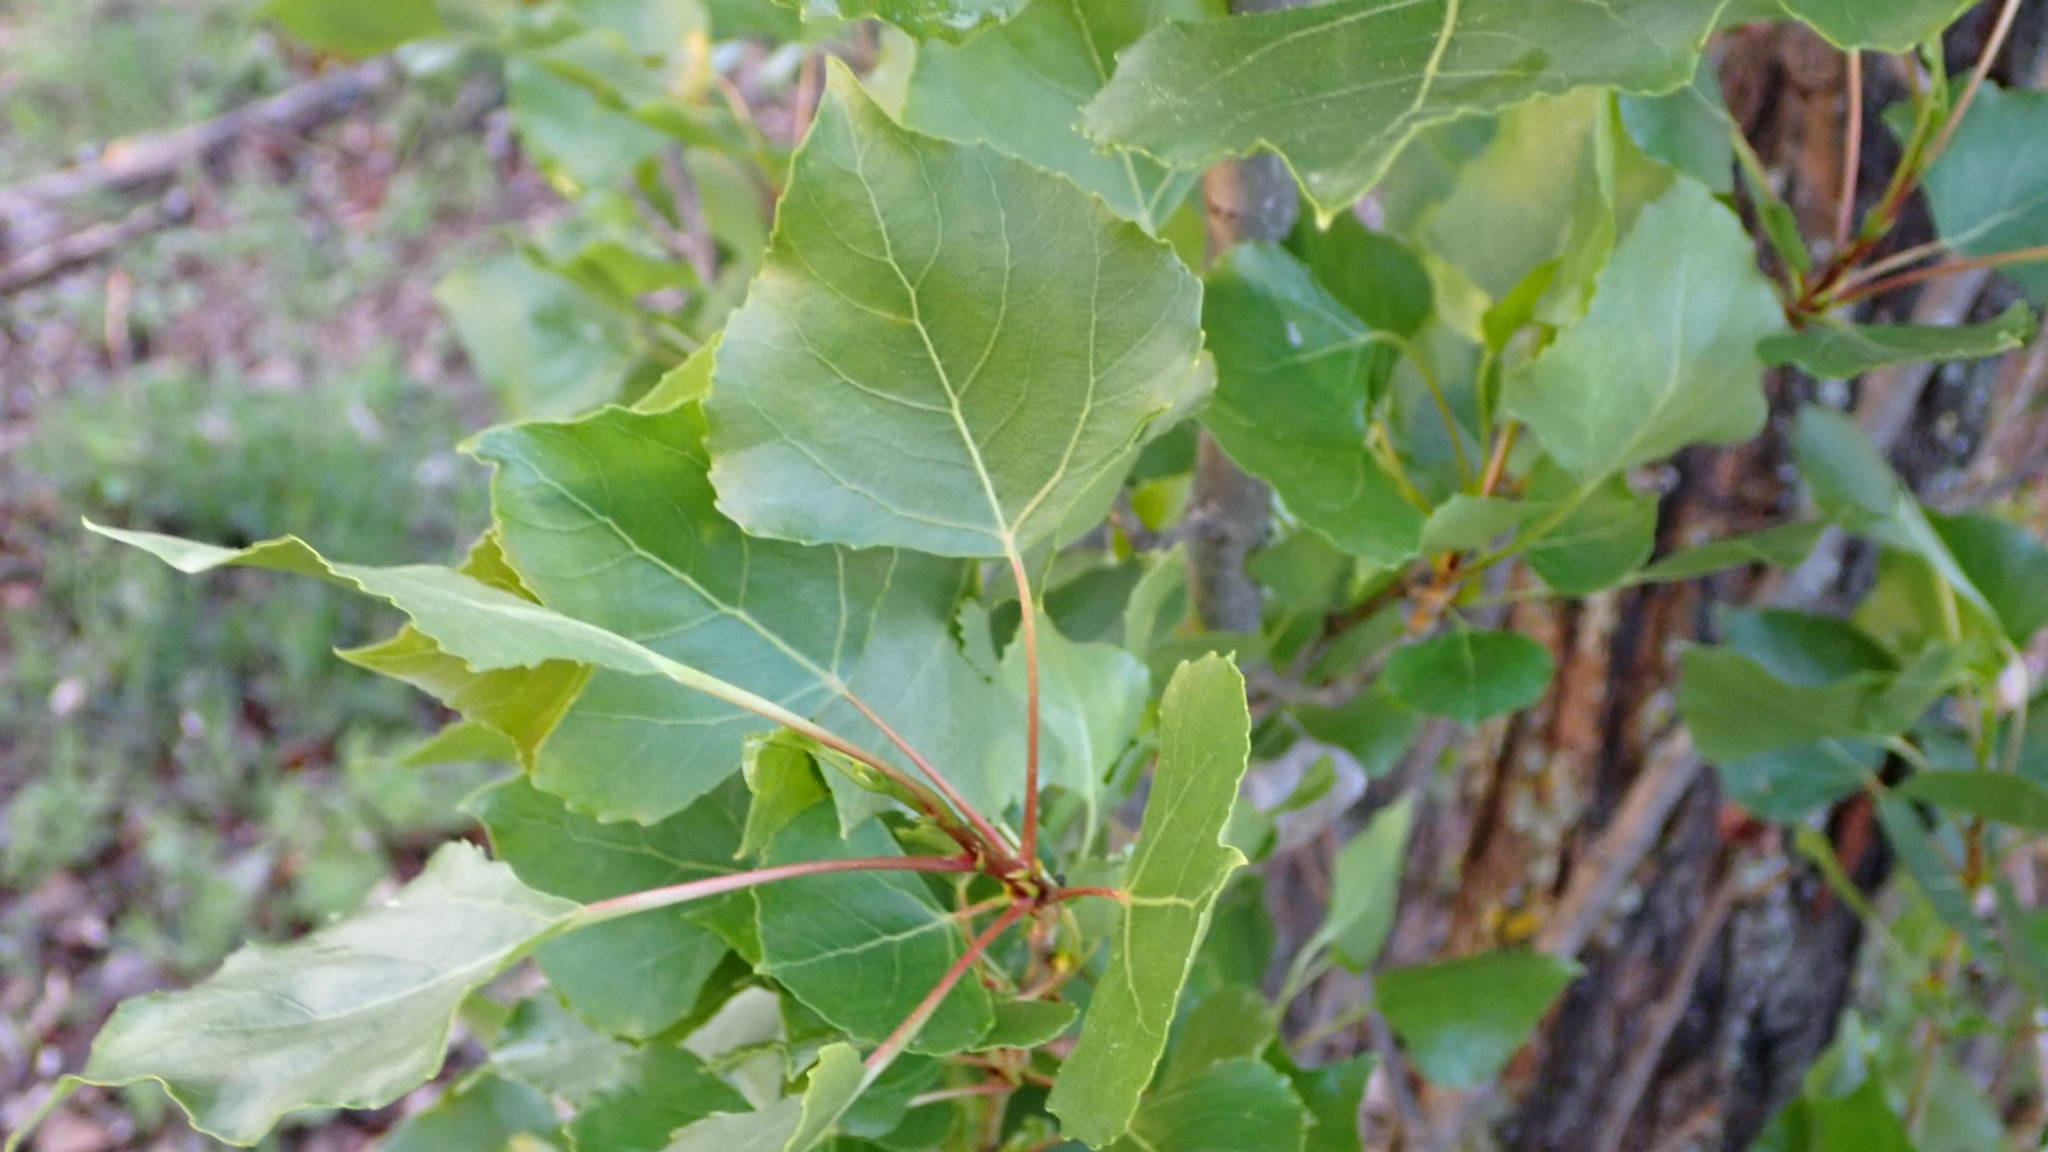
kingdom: Plantae
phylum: Tracheophyta
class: Magnoliopsida
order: Malpighiales
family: Salicaceae
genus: Populus
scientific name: Populus nigra
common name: Black poplar
